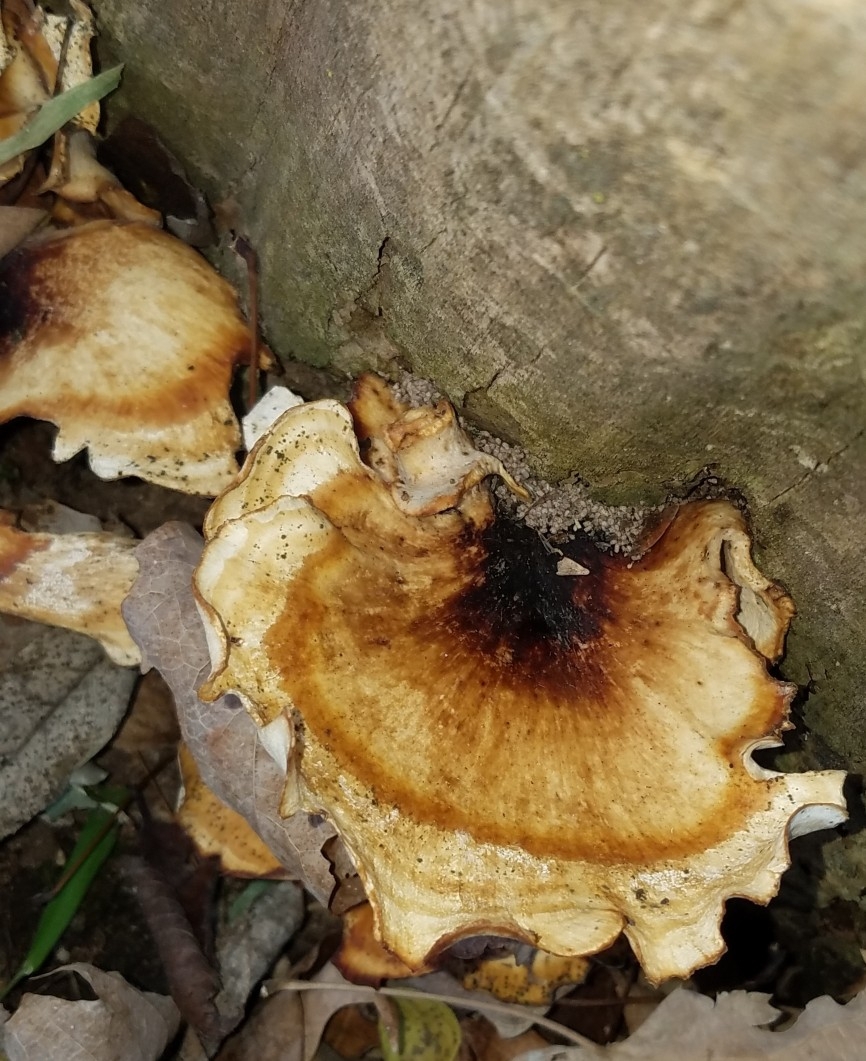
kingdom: Fungi
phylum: Basidiomycota
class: Agaricomycetes
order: Polyporales
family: Polyporaceae
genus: Picipes
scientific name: Picipes badius
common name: Bay polypore
